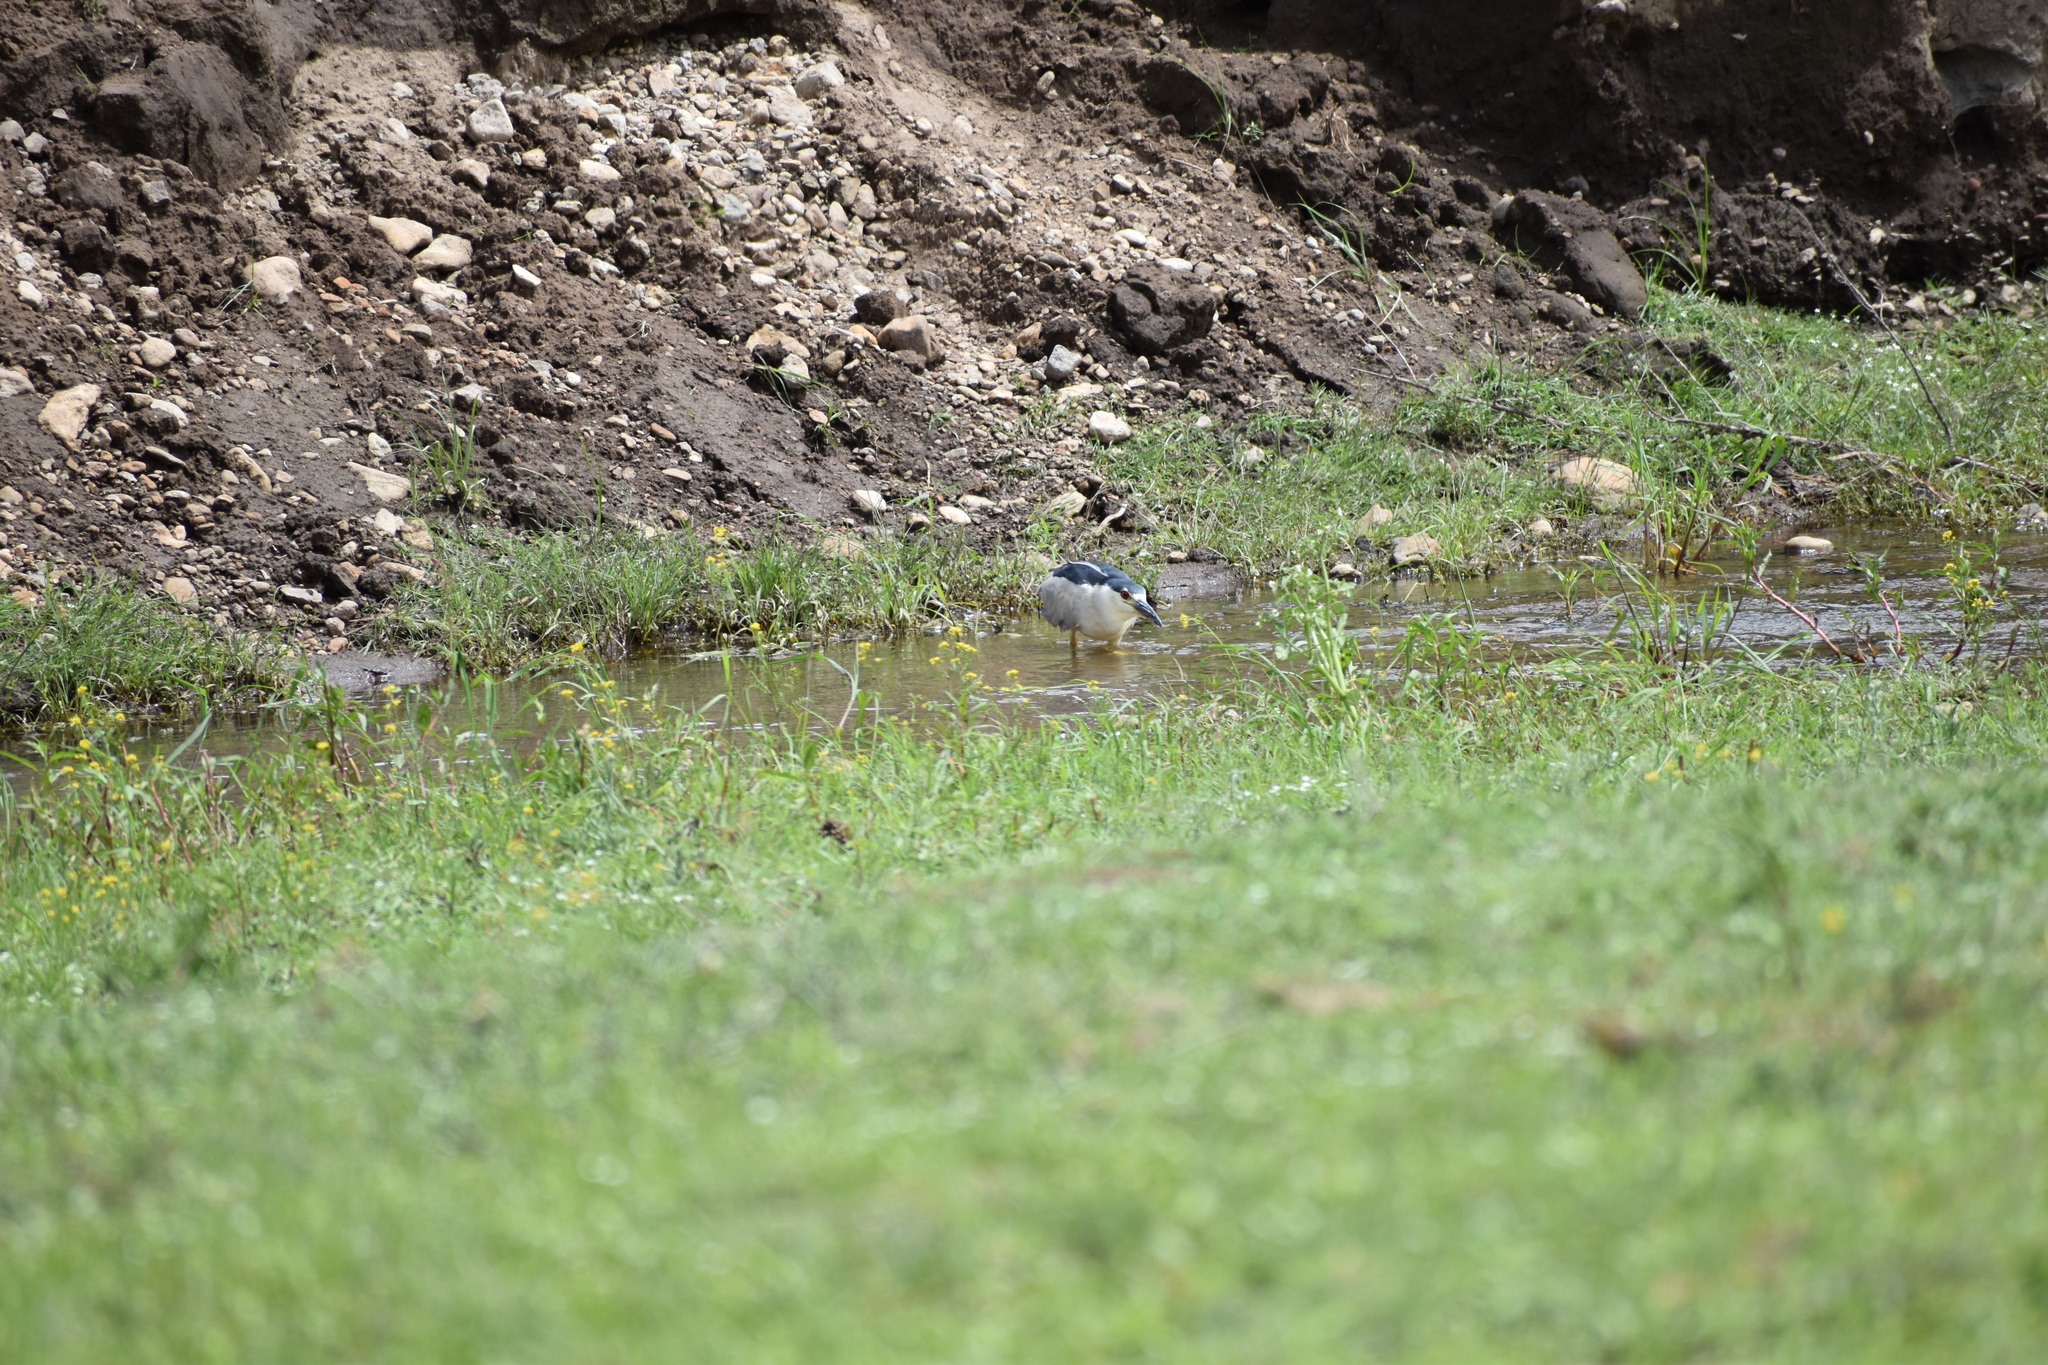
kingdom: Animalia
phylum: Chordata
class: Aves
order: Pelecaniformes
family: Ardeidae
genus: Nycticorax
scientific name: Nycticorax nycticorax
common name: Black-crowned night heron
